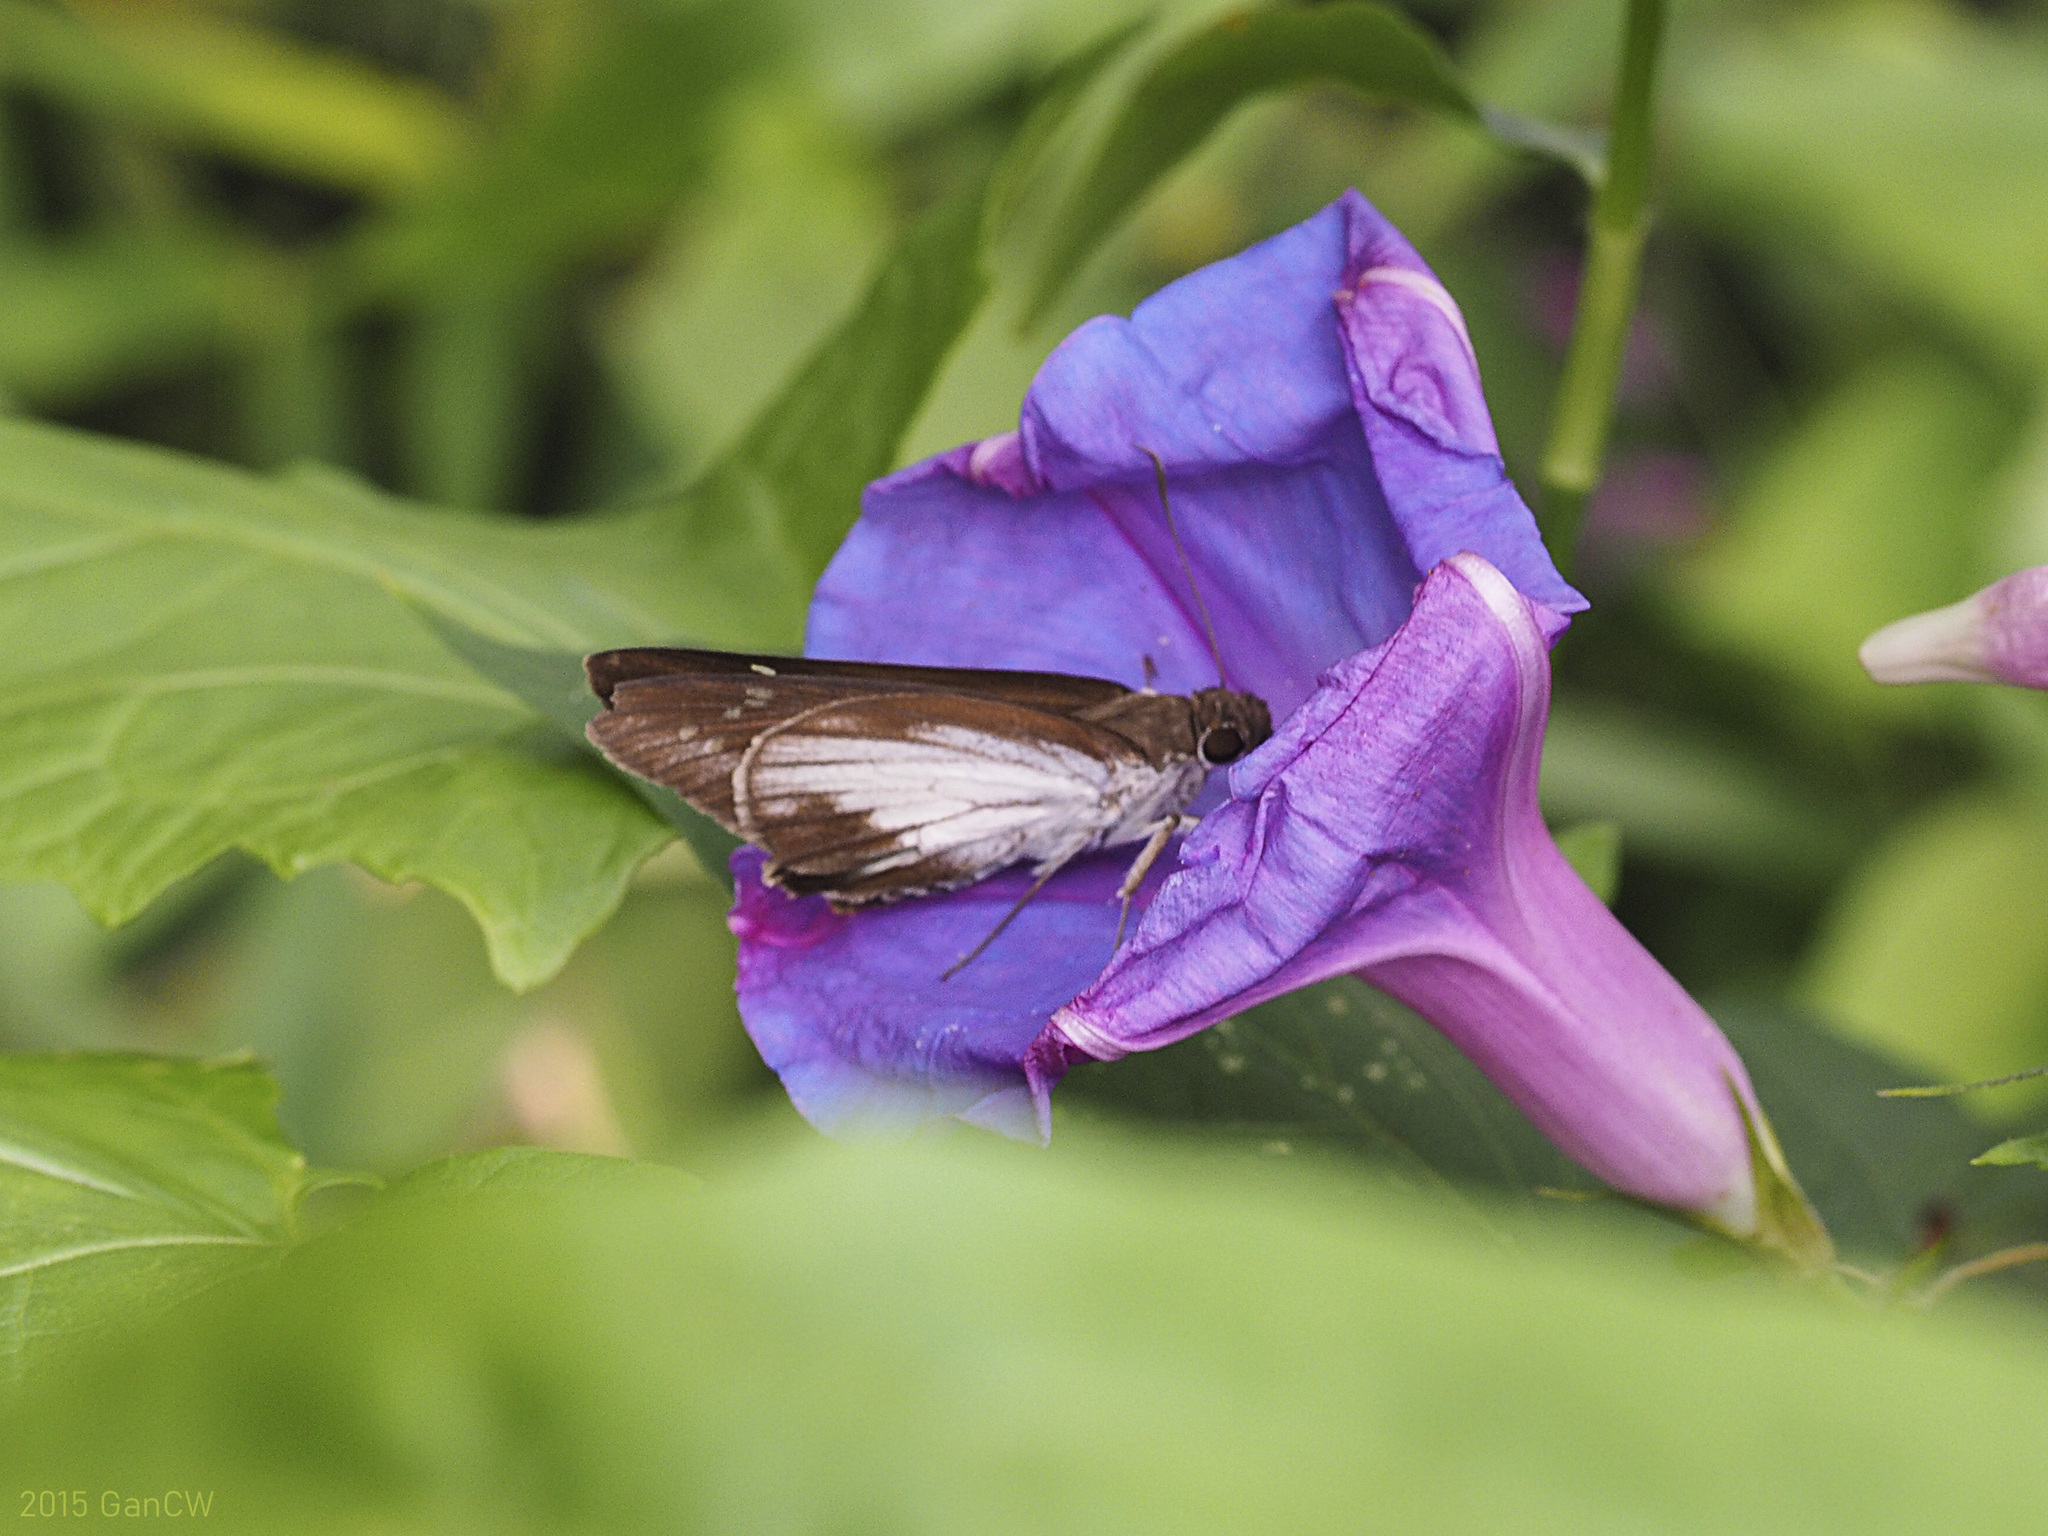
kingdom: Animalia
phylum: Arthropoda
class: Insecta
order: Lepidoptera
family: Hesperiidae
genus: Unkana
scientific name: Unkana ambasa
